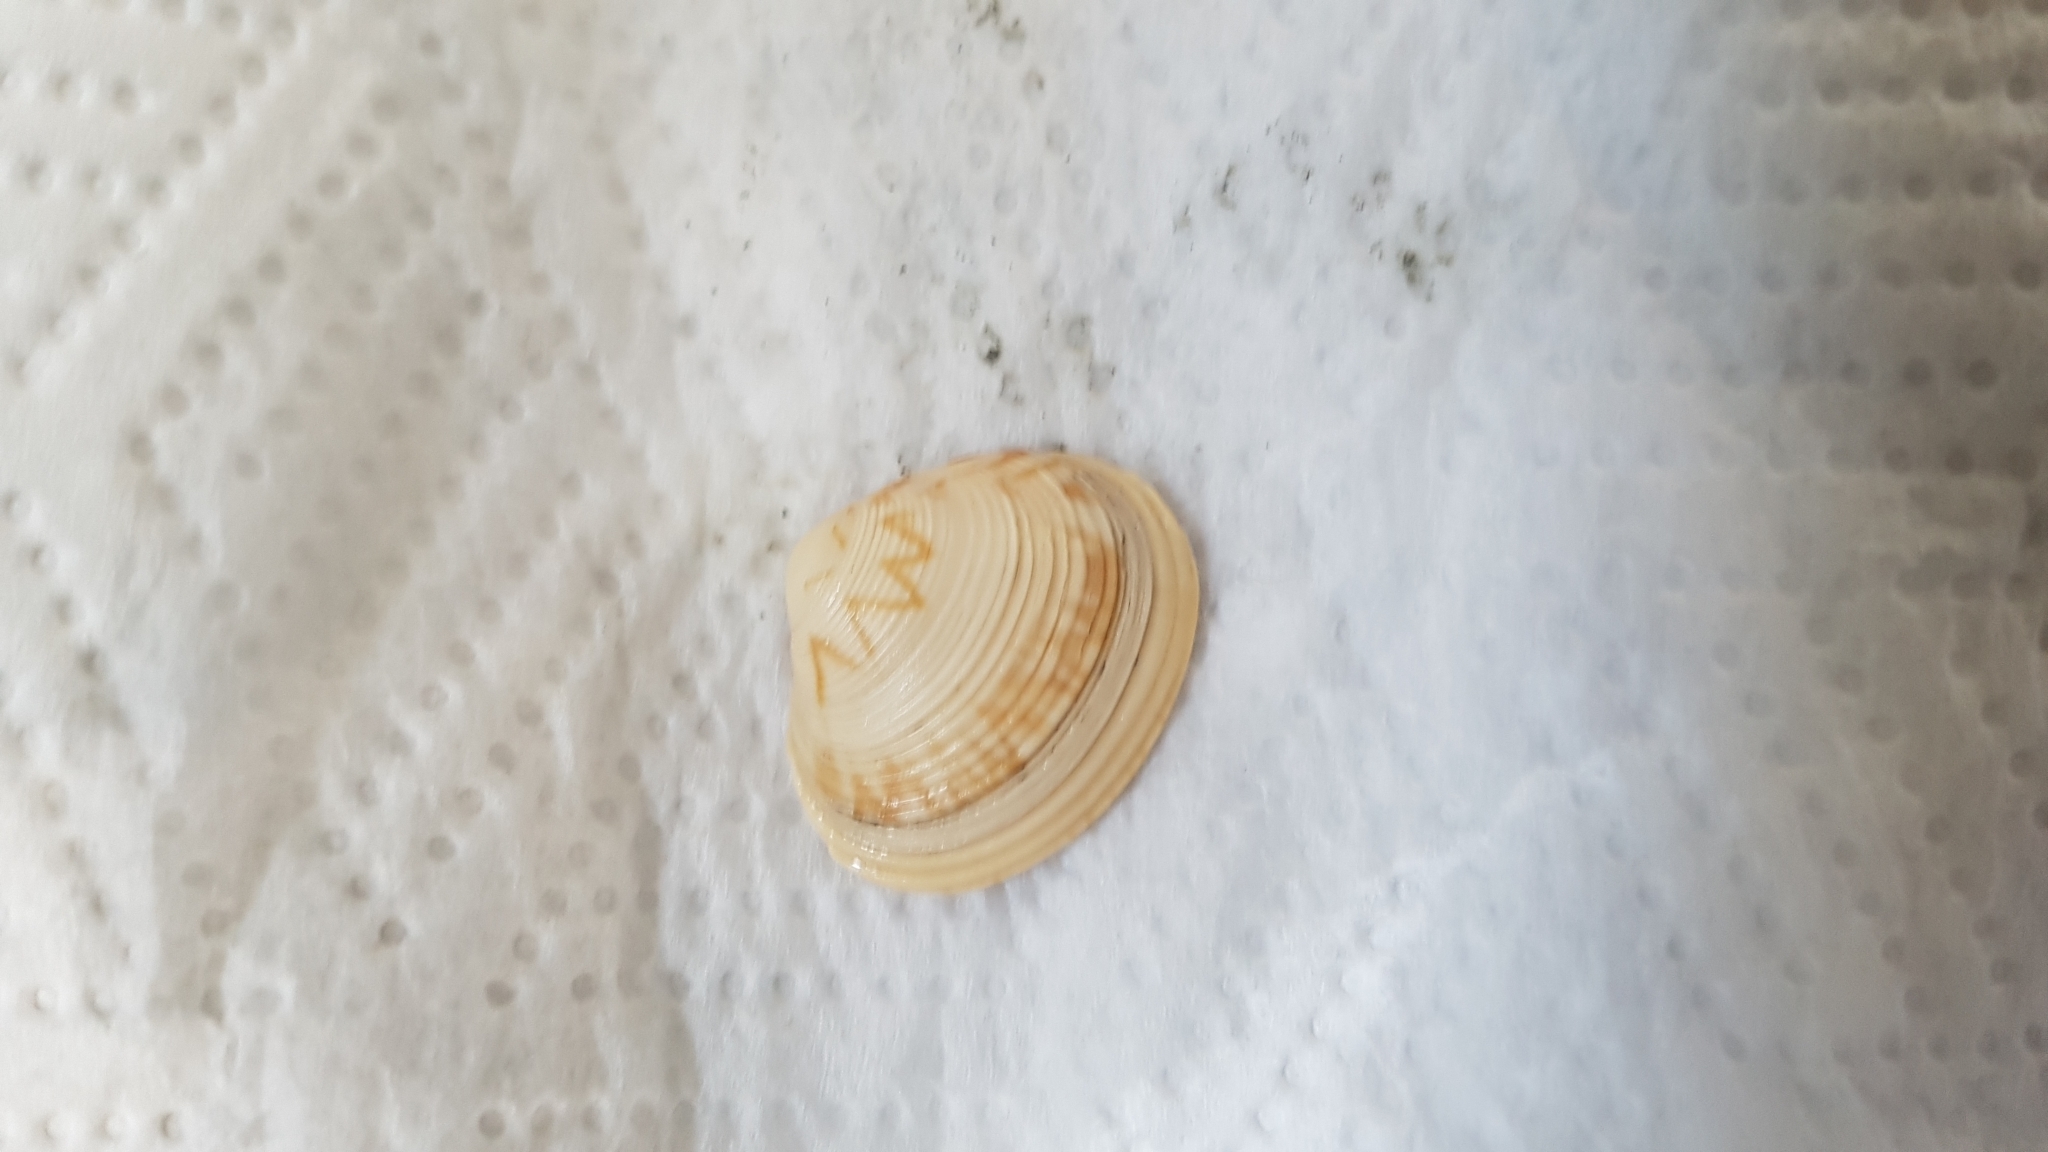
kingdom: Animalia
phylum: Mollusca
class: Bivalvia
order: Venerida
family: Veneridae
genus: Tawera
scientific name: Tawera spissa
